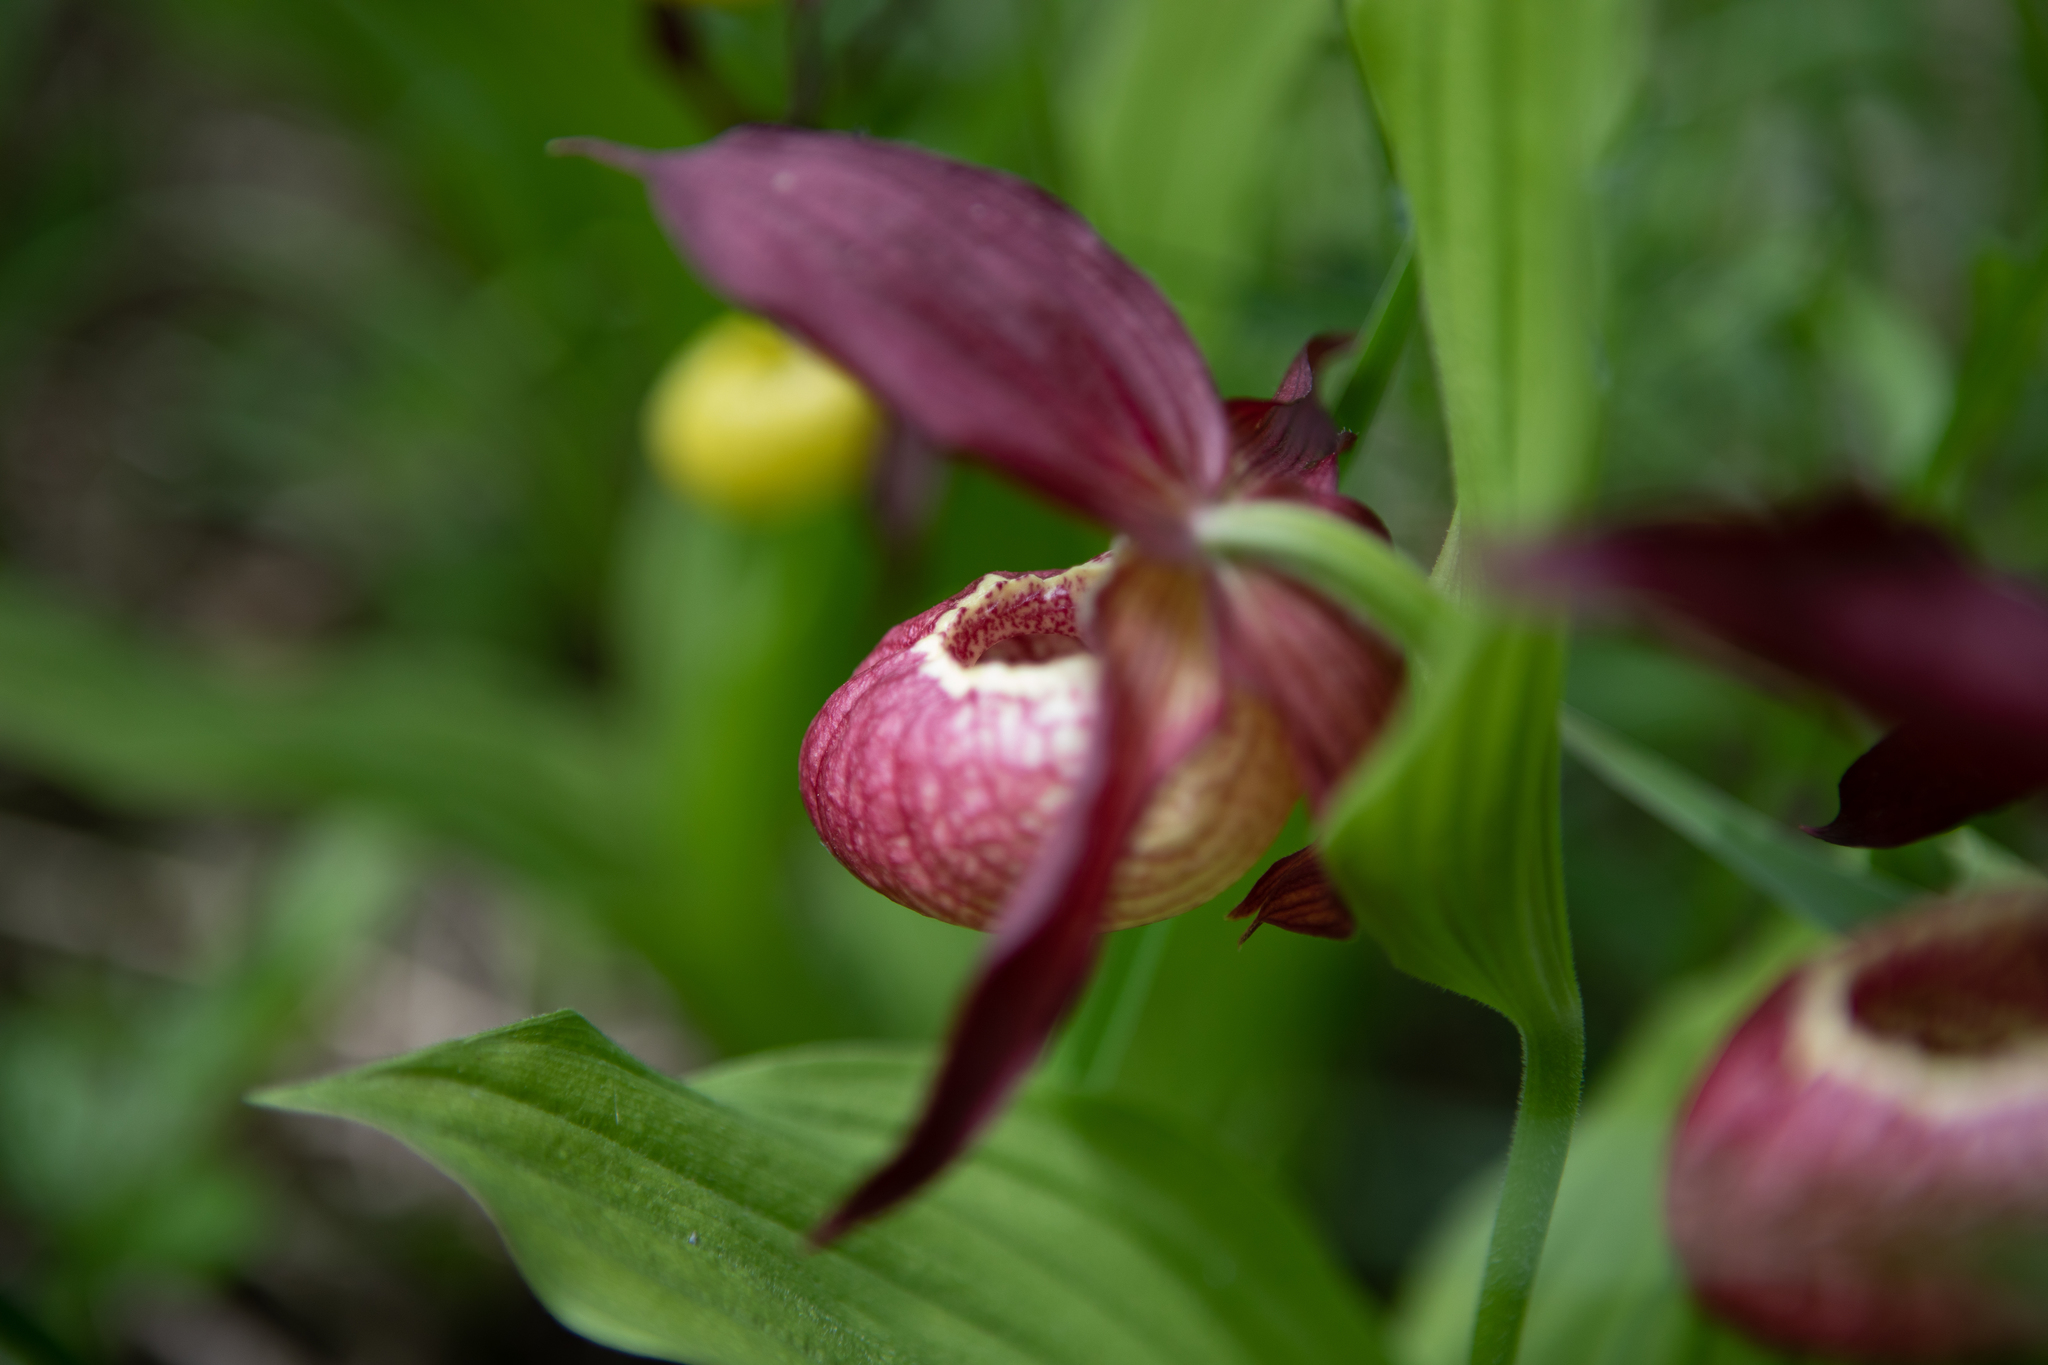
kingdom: Plantae
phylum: Tracheophyta
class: Liliopsida
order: Asparagales
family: Orchidaceae
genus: Cypripedium
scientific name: Cypripedium ventricosum
